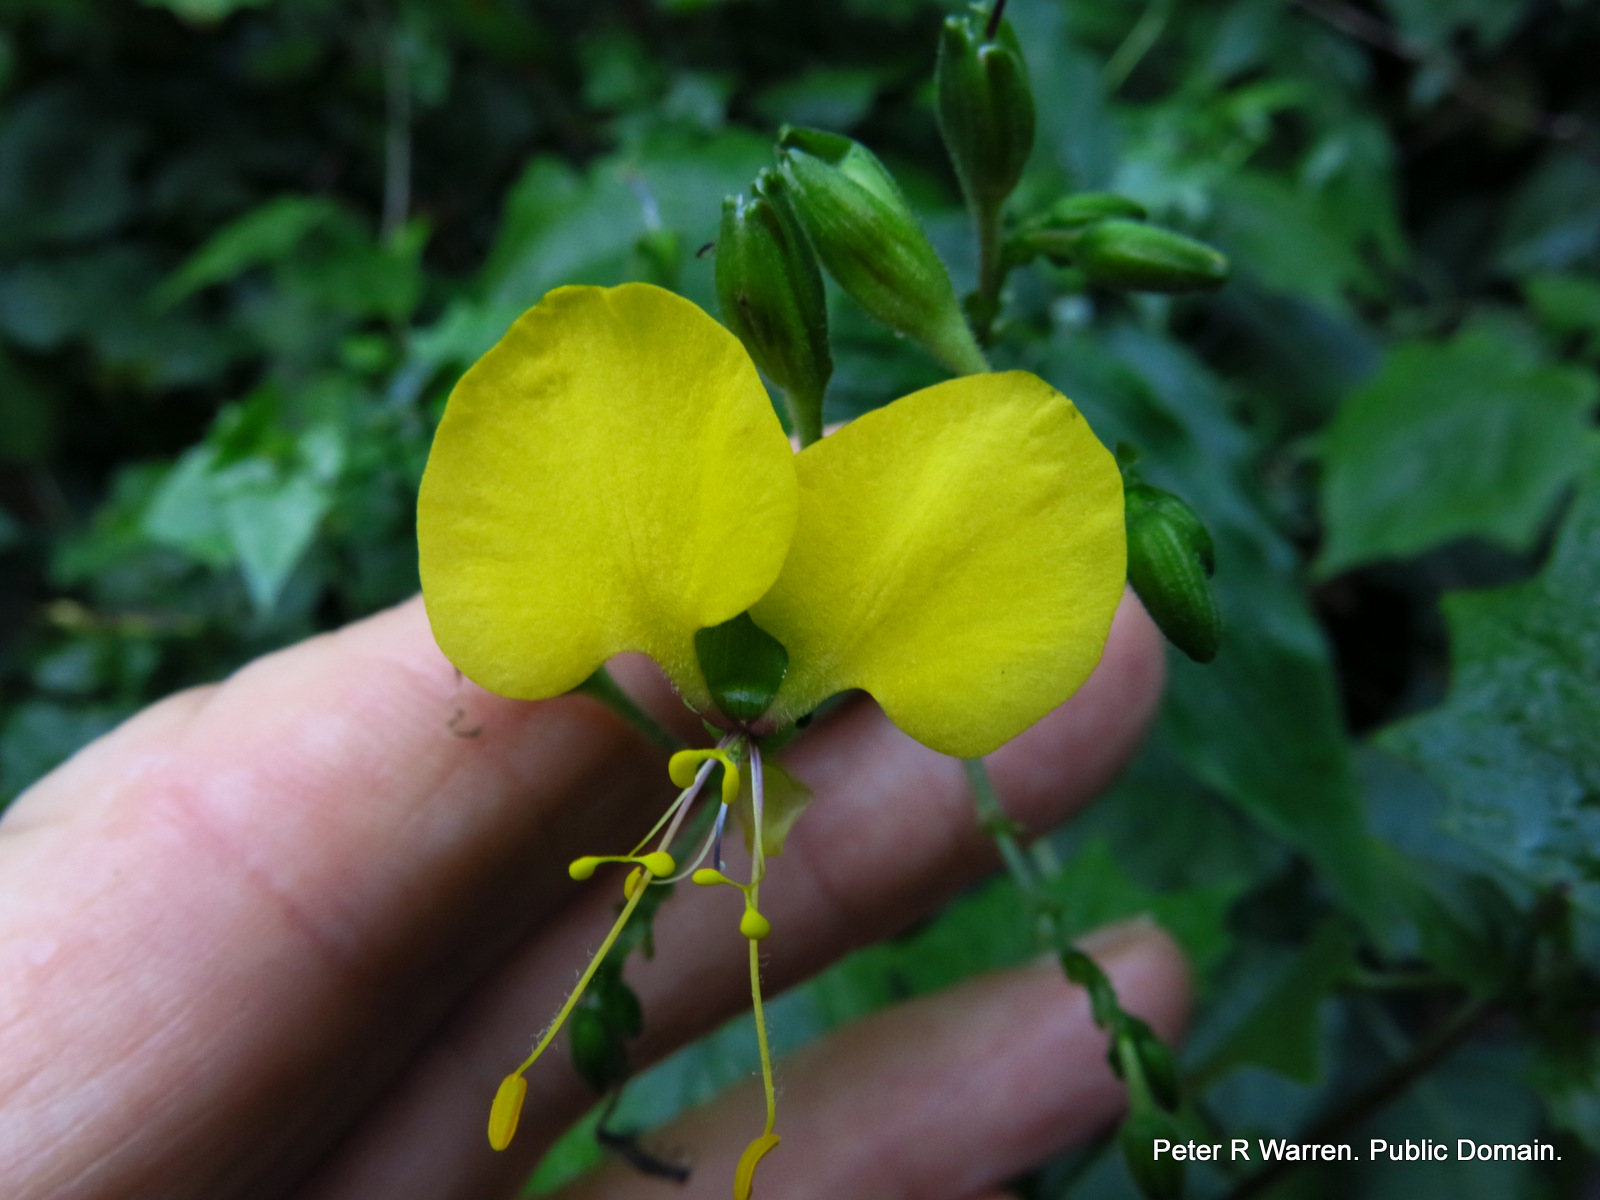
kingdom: Plantae
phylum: Tracheophyta
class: Liliopsida
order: Commelinales
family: Commelinaceae
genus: Aneilema
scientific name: Aneilema aequinoctiale
